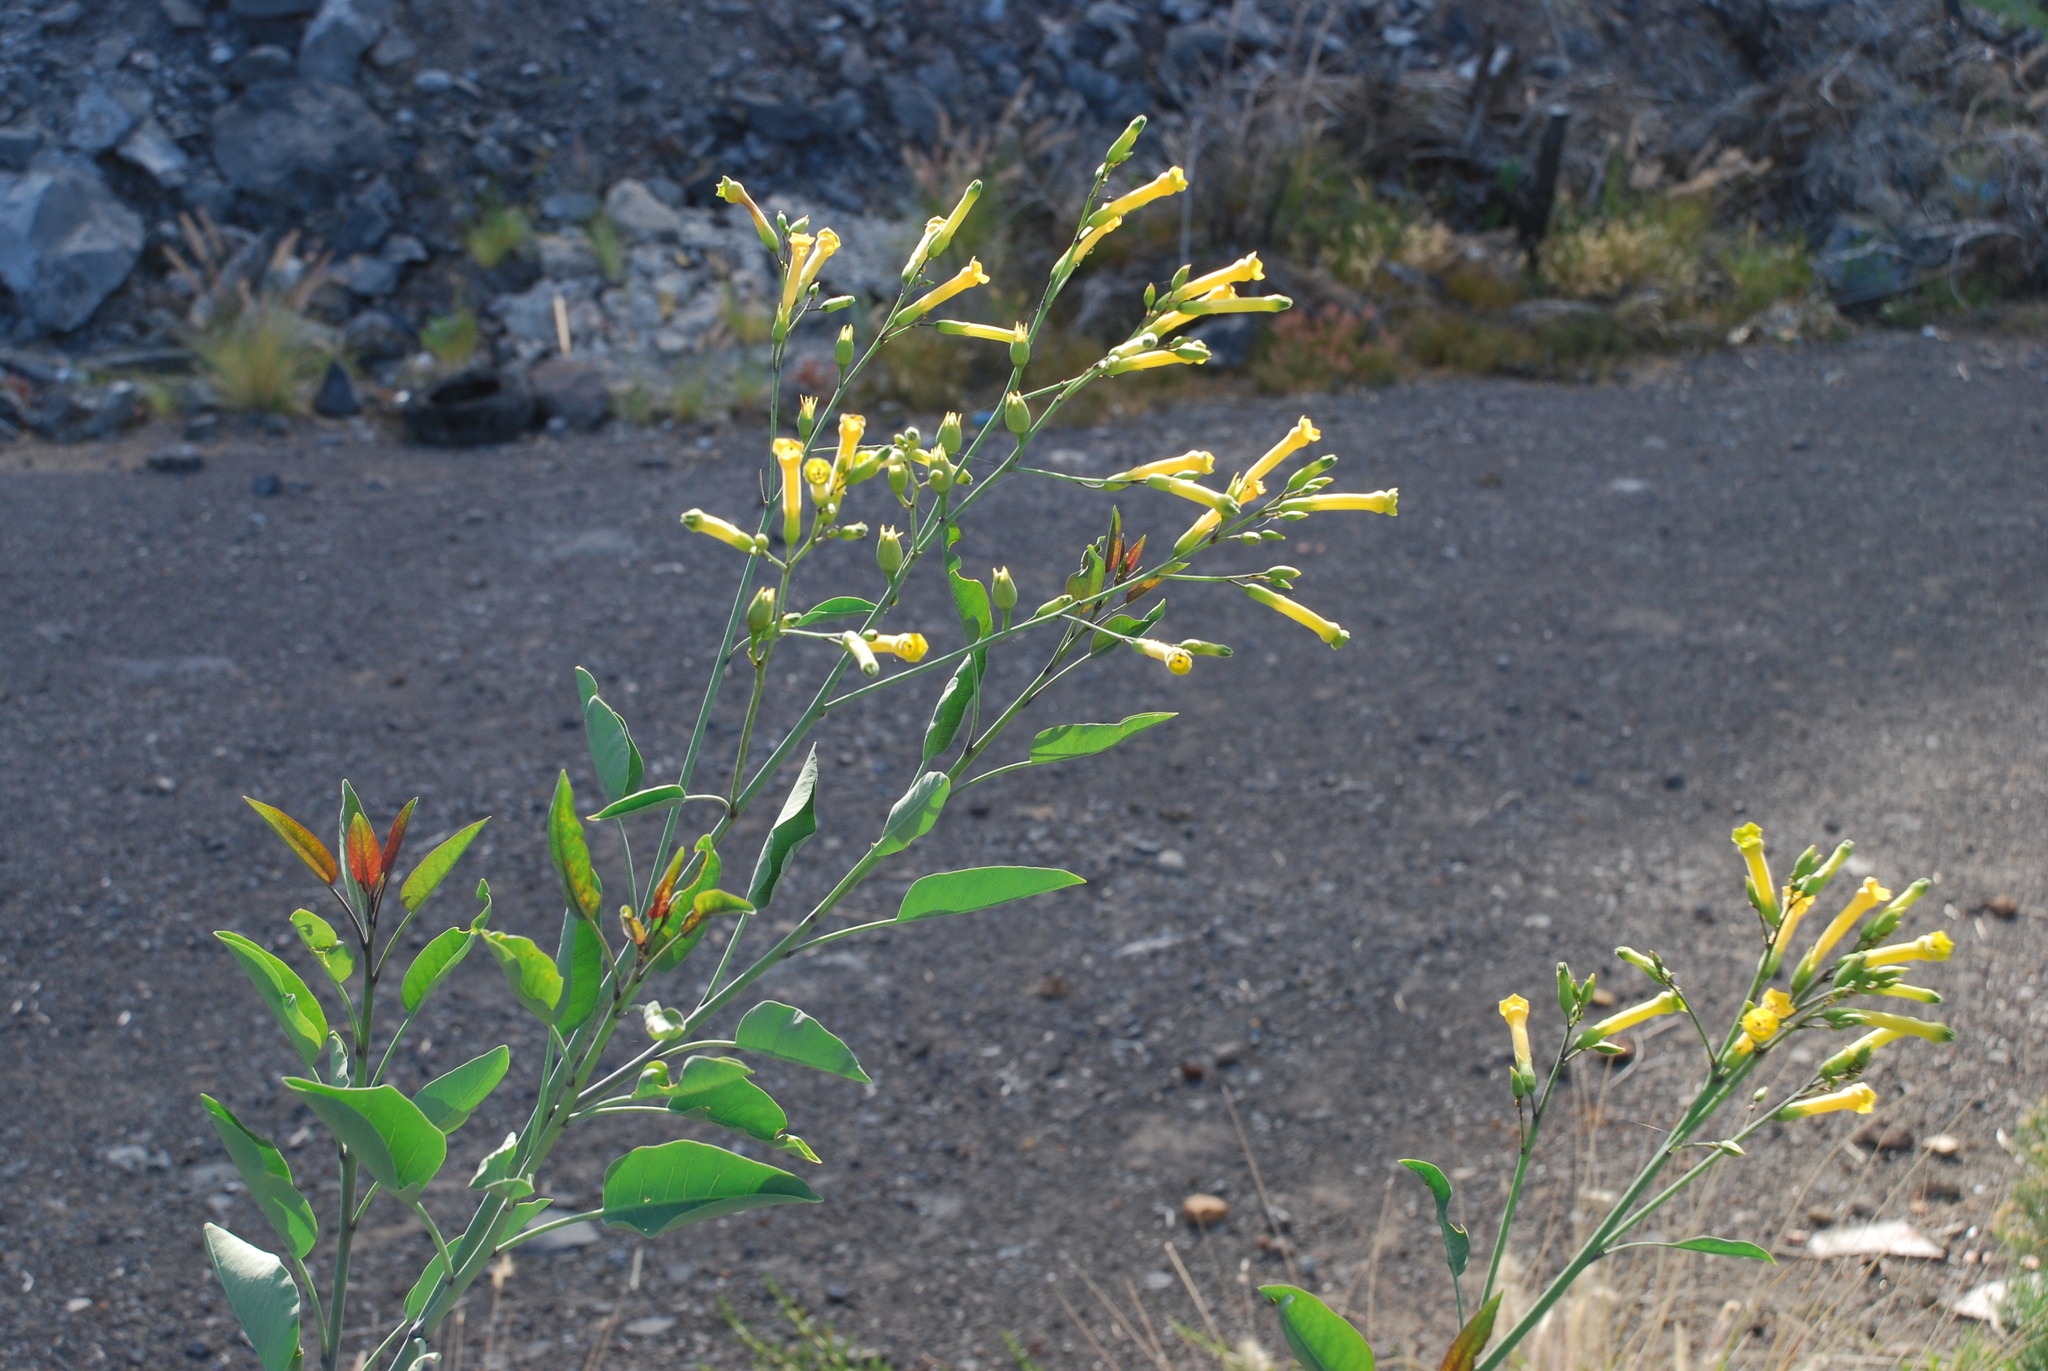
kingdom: Plantae
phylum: Tracheophyta
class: Magnoliopsida
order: Solanales
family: Solanaceae
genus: Nicotiana
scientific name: Nicotiana glauca
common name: Tree tobacco
